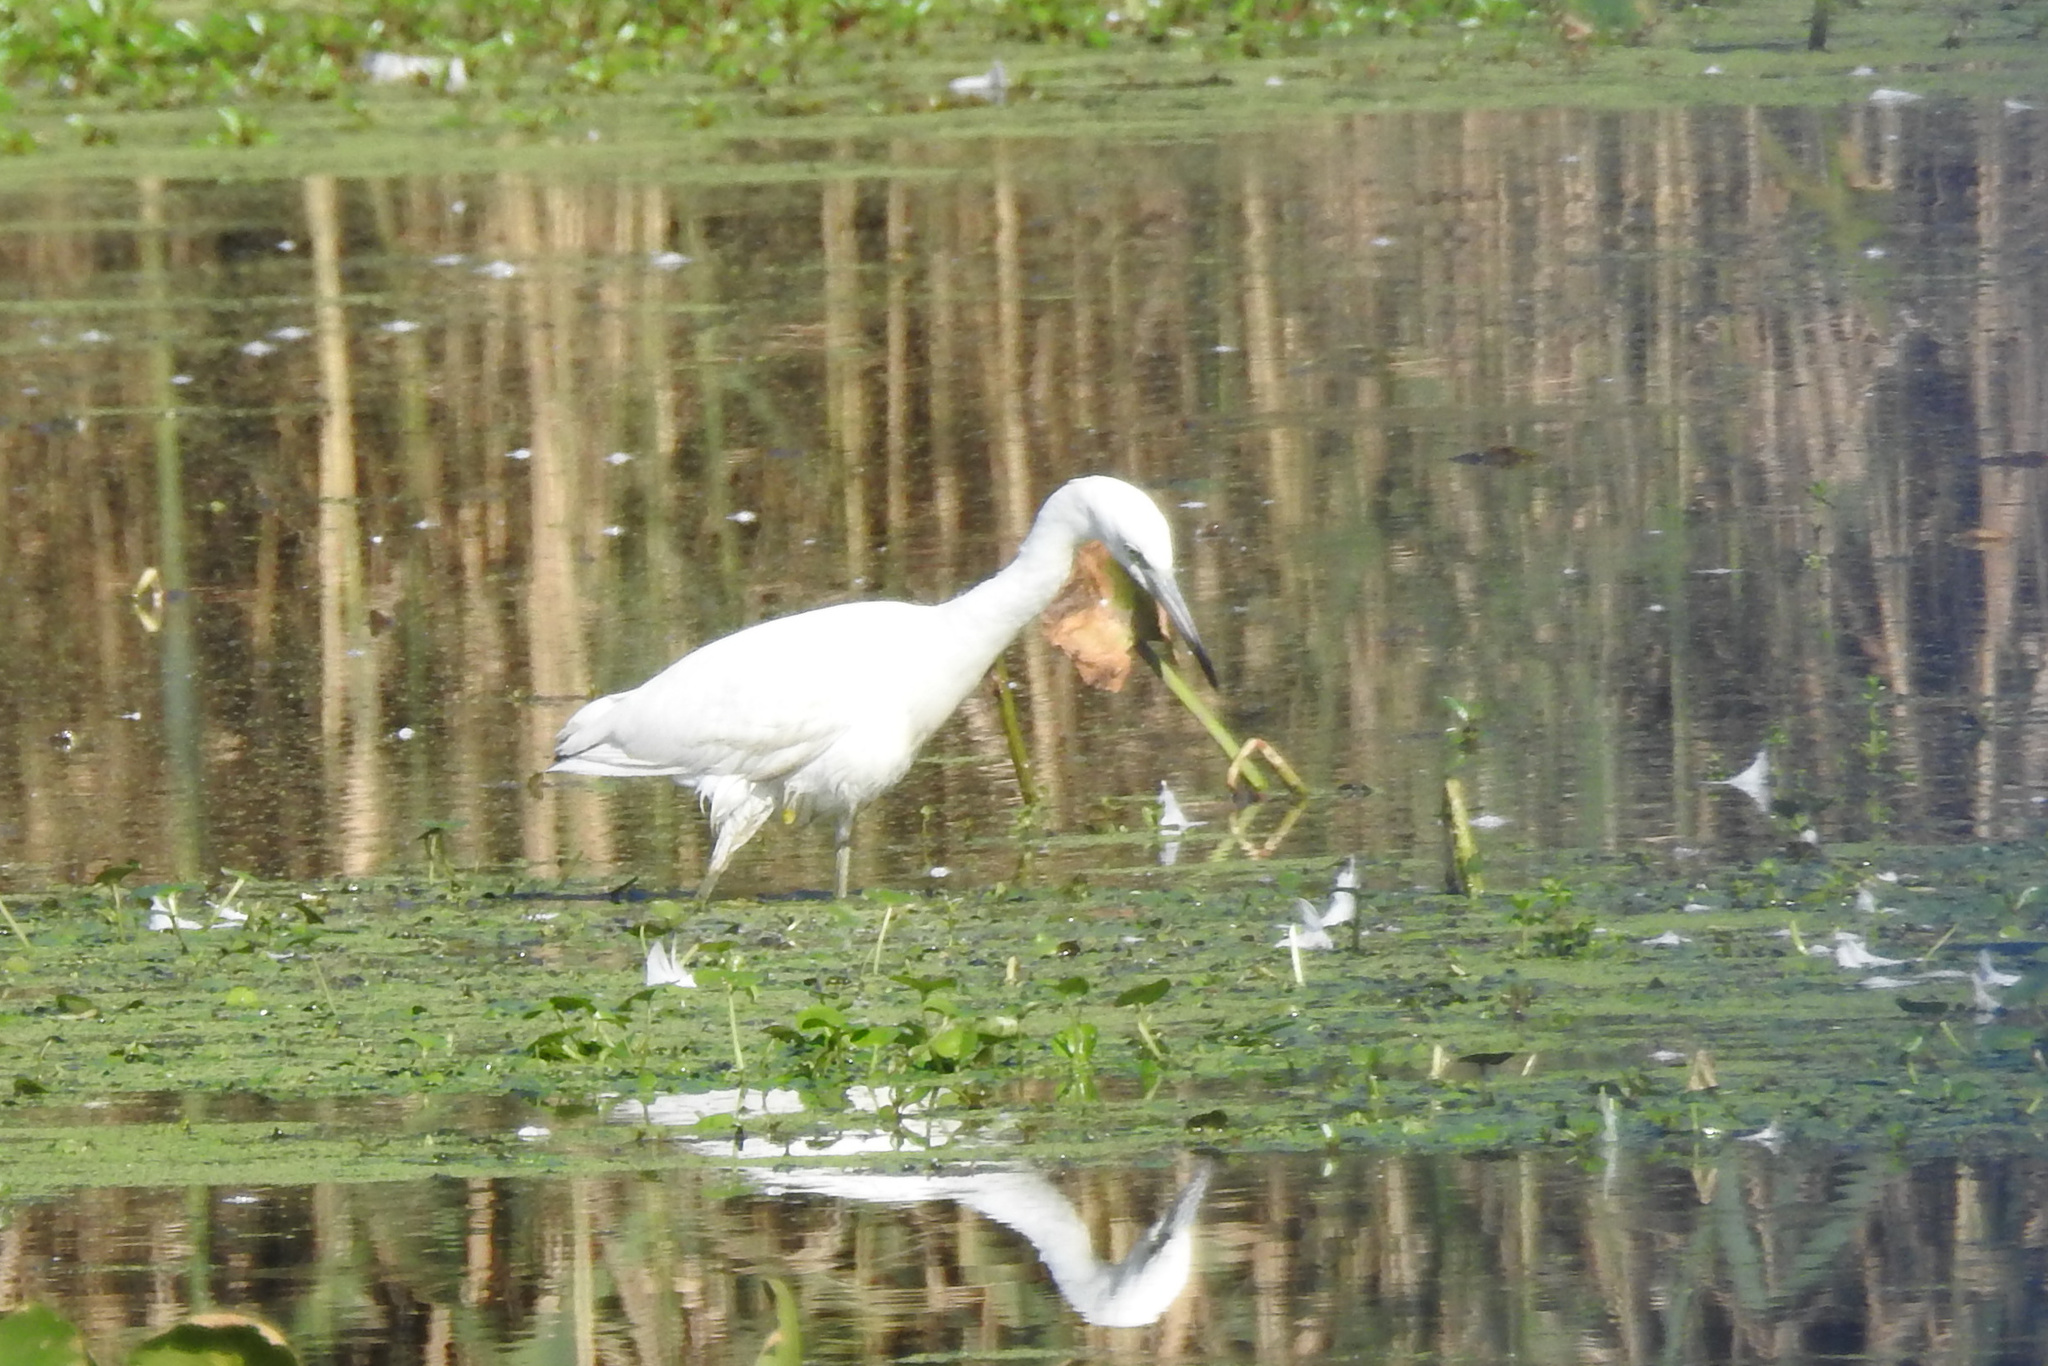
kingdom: Animalia
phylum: Chordata
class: Aves
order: Pelecaniformes
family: Ardeidae
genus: Egretta
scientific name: Egretta caerulea
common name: Little blue heron
